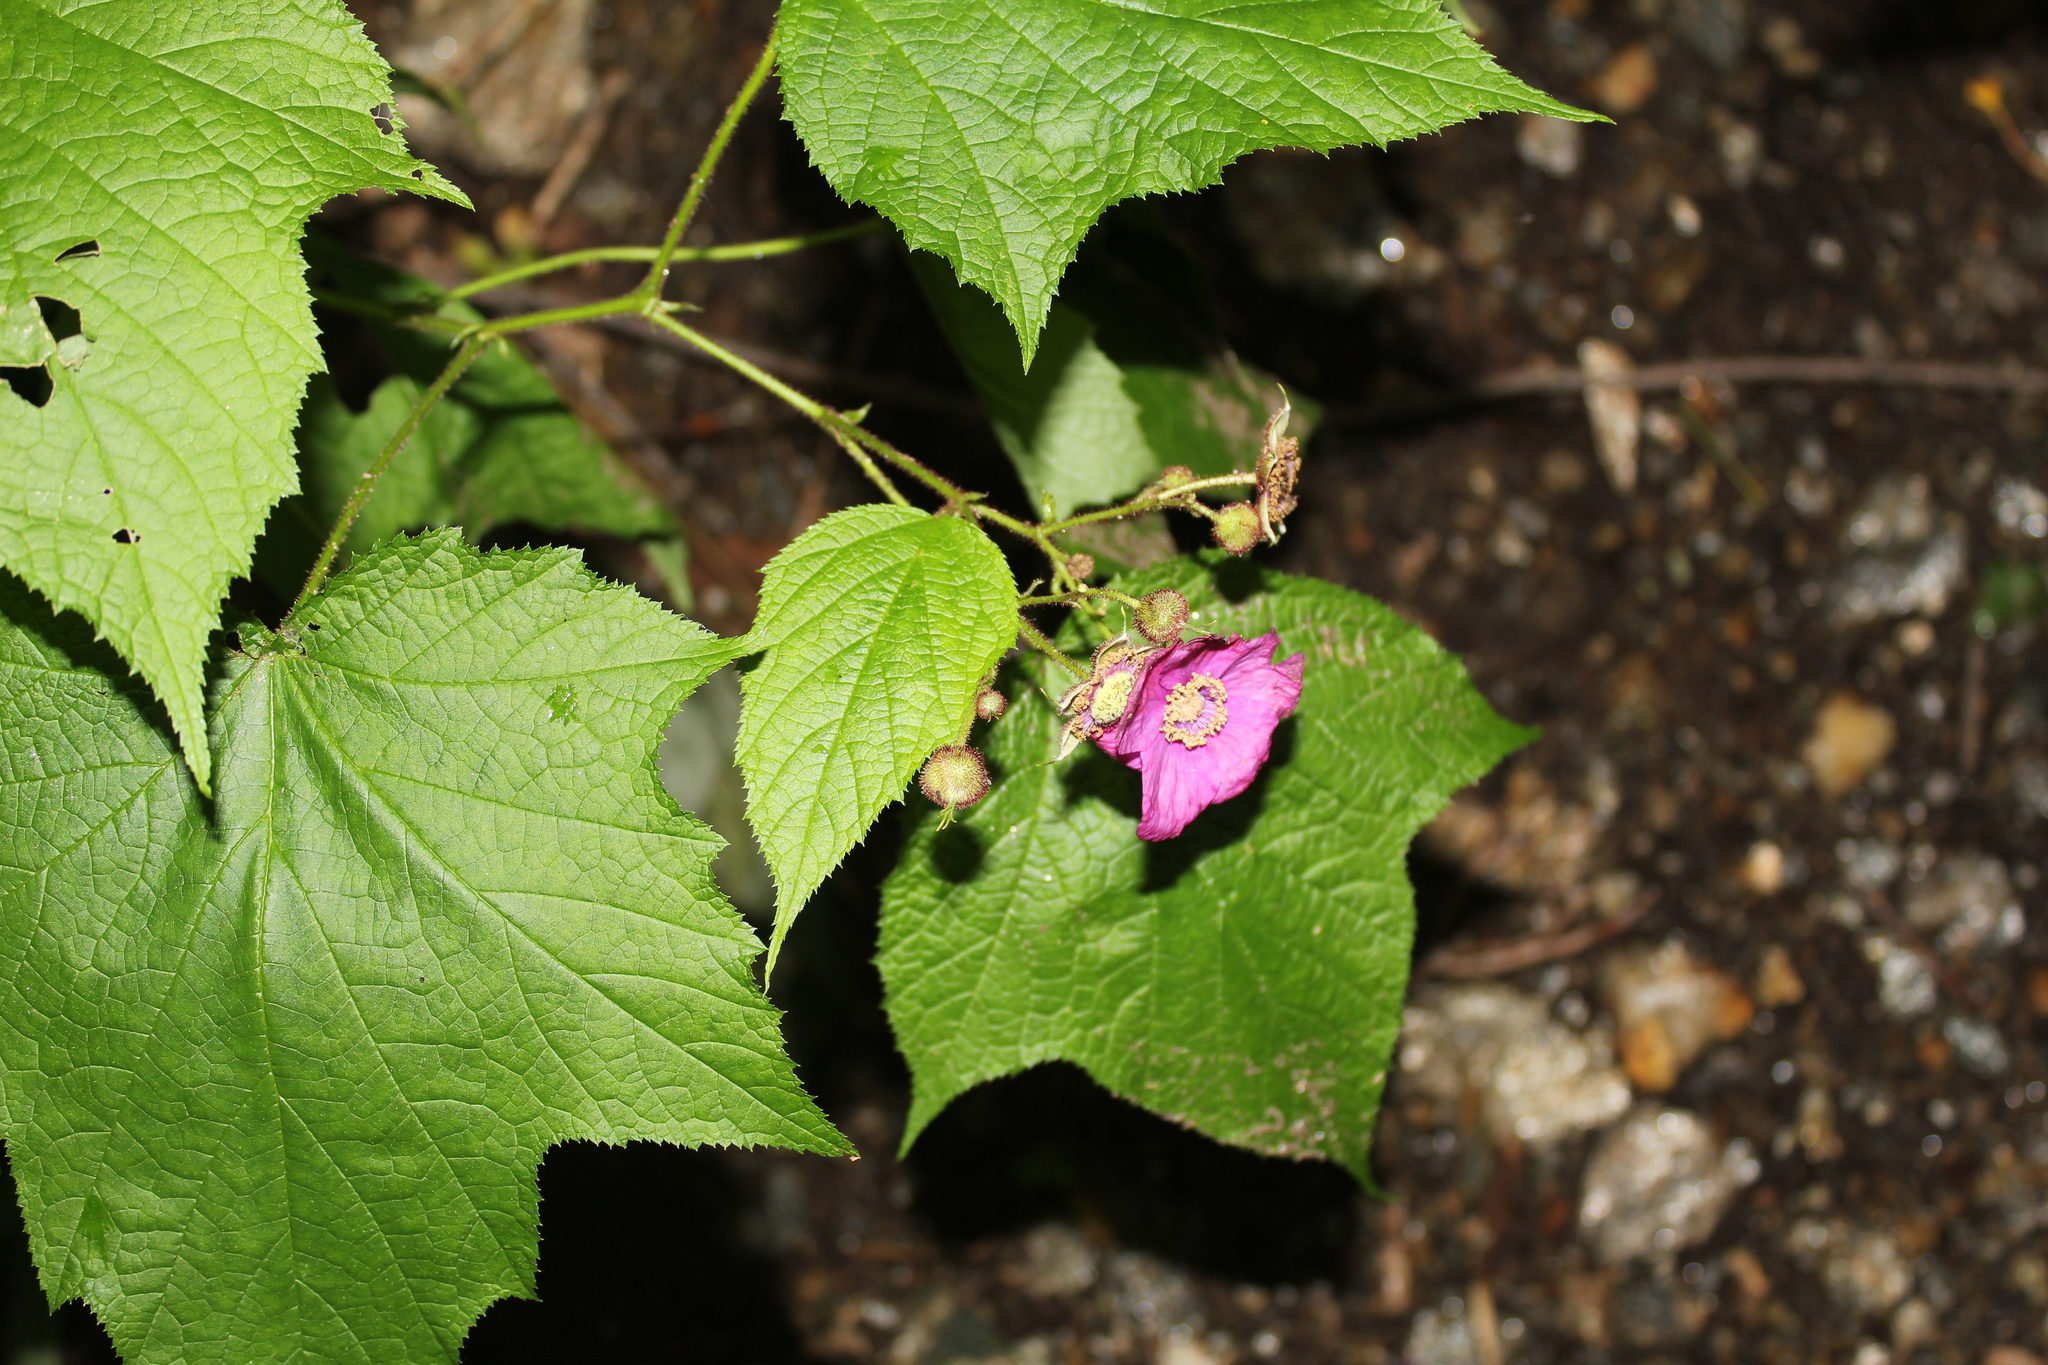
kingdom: Plantae
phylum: Tracheophyta
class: Magnoliopsida
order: Rosales
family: Rosaceae
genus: Rubus
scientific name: Rubus odoratus
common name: Purple-flowered raspberry
